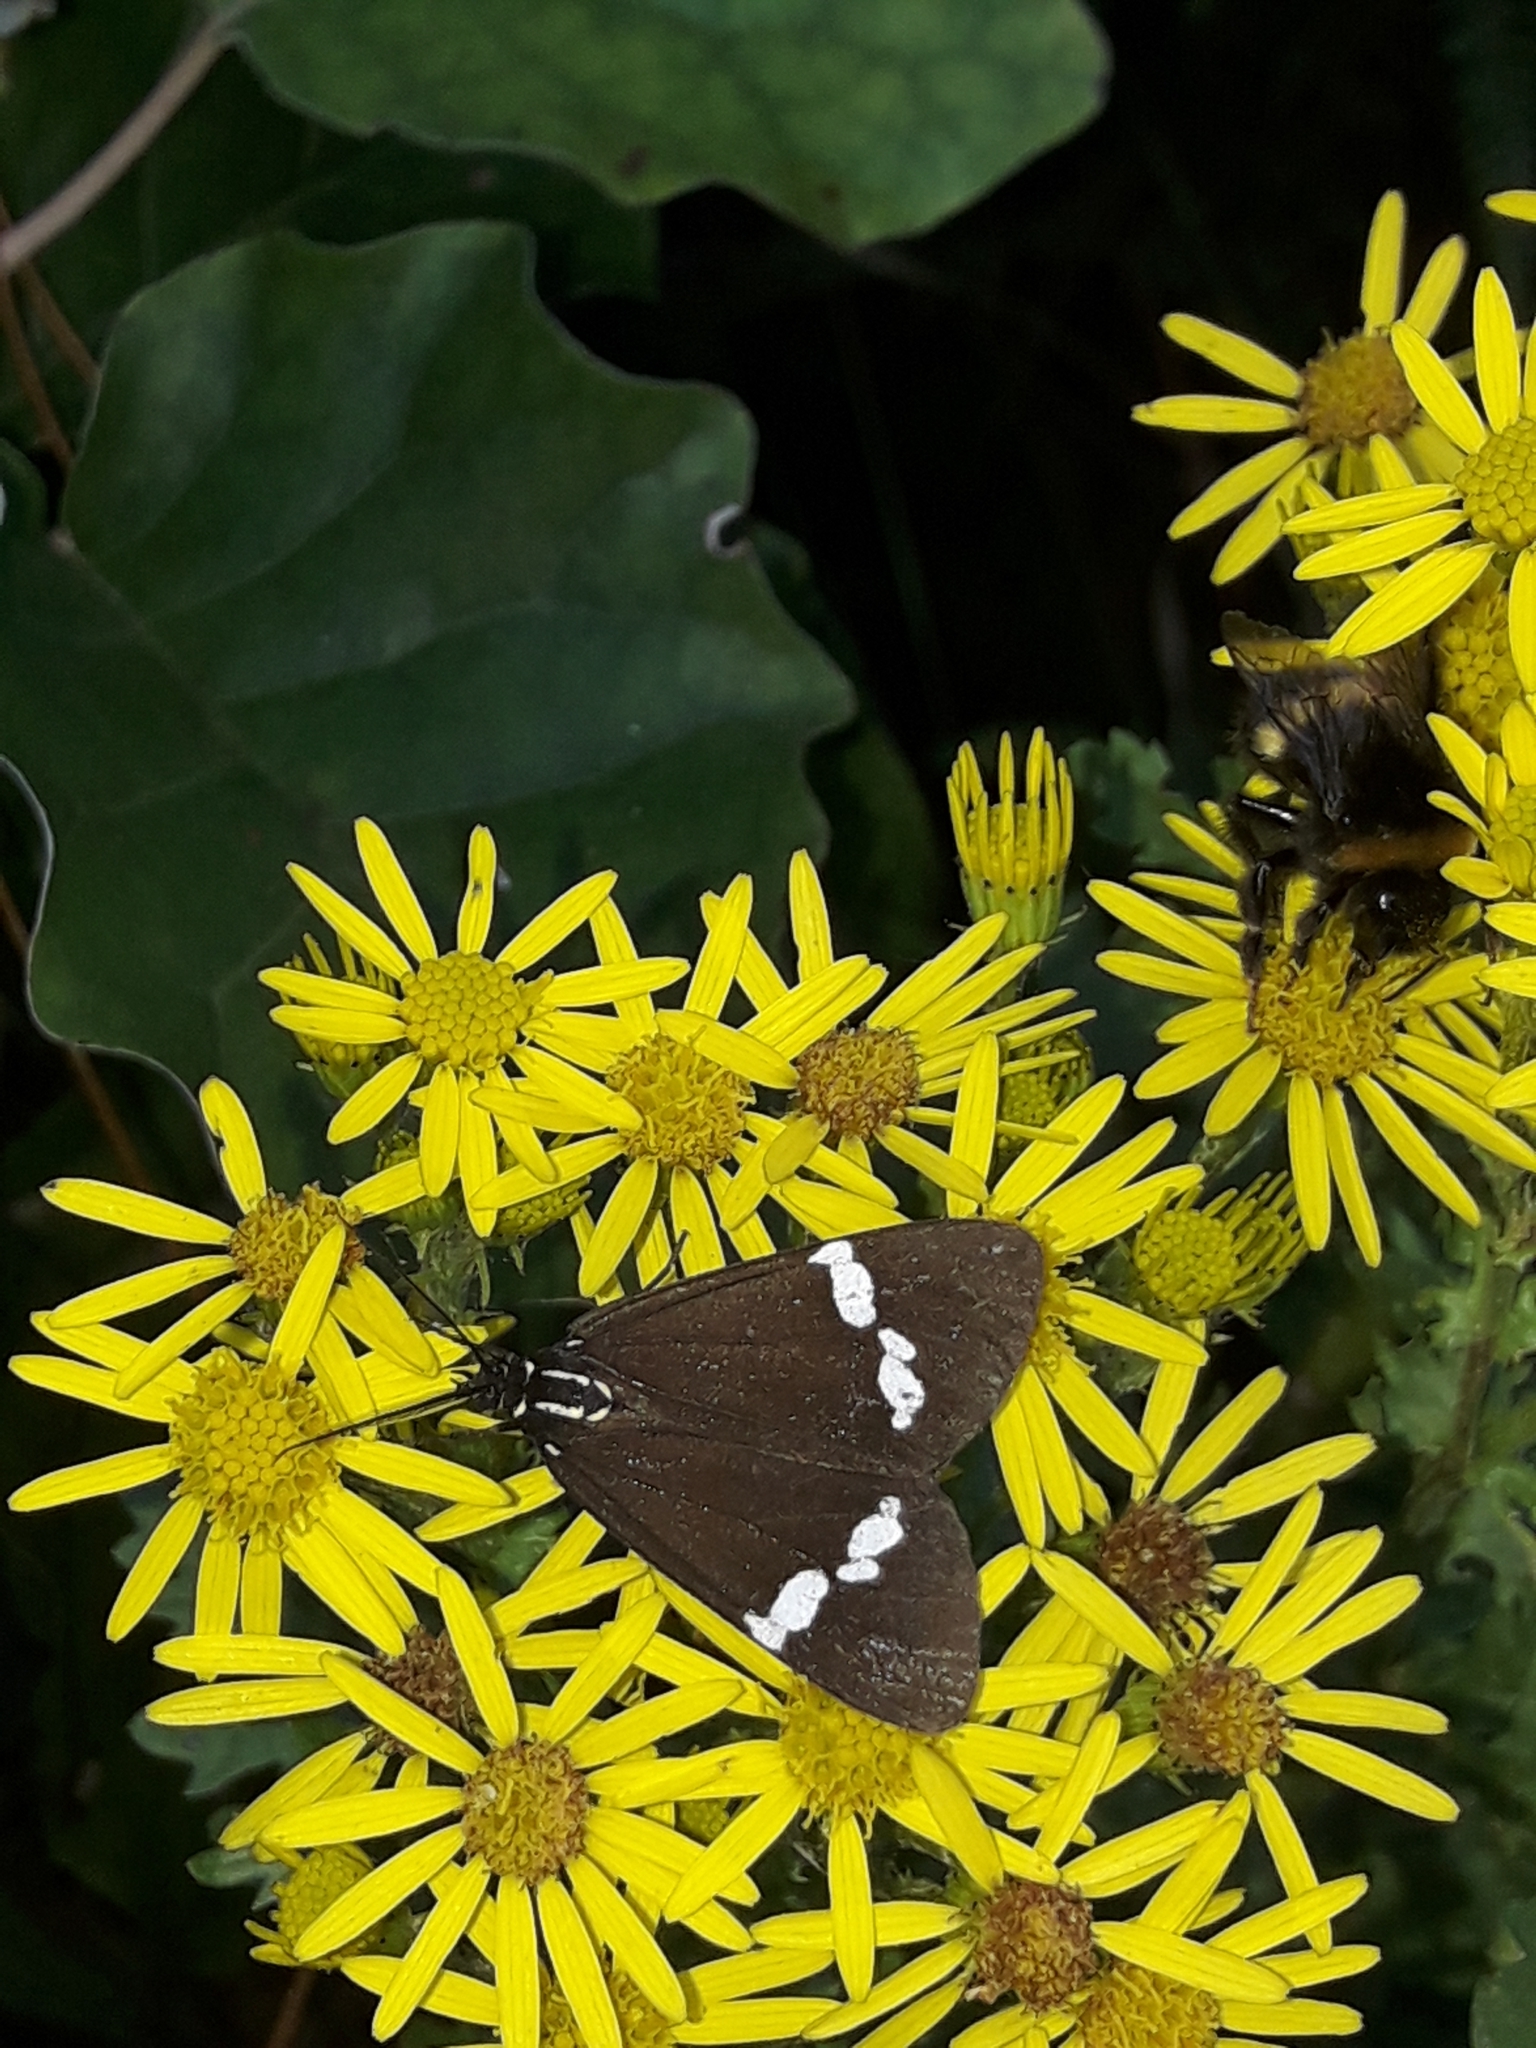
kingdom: Animalia
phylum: Arthropoda
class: Insecta
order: Lepidoptera
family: Erebidae
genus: Nyctemera
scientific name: Nyctemera annulatum
